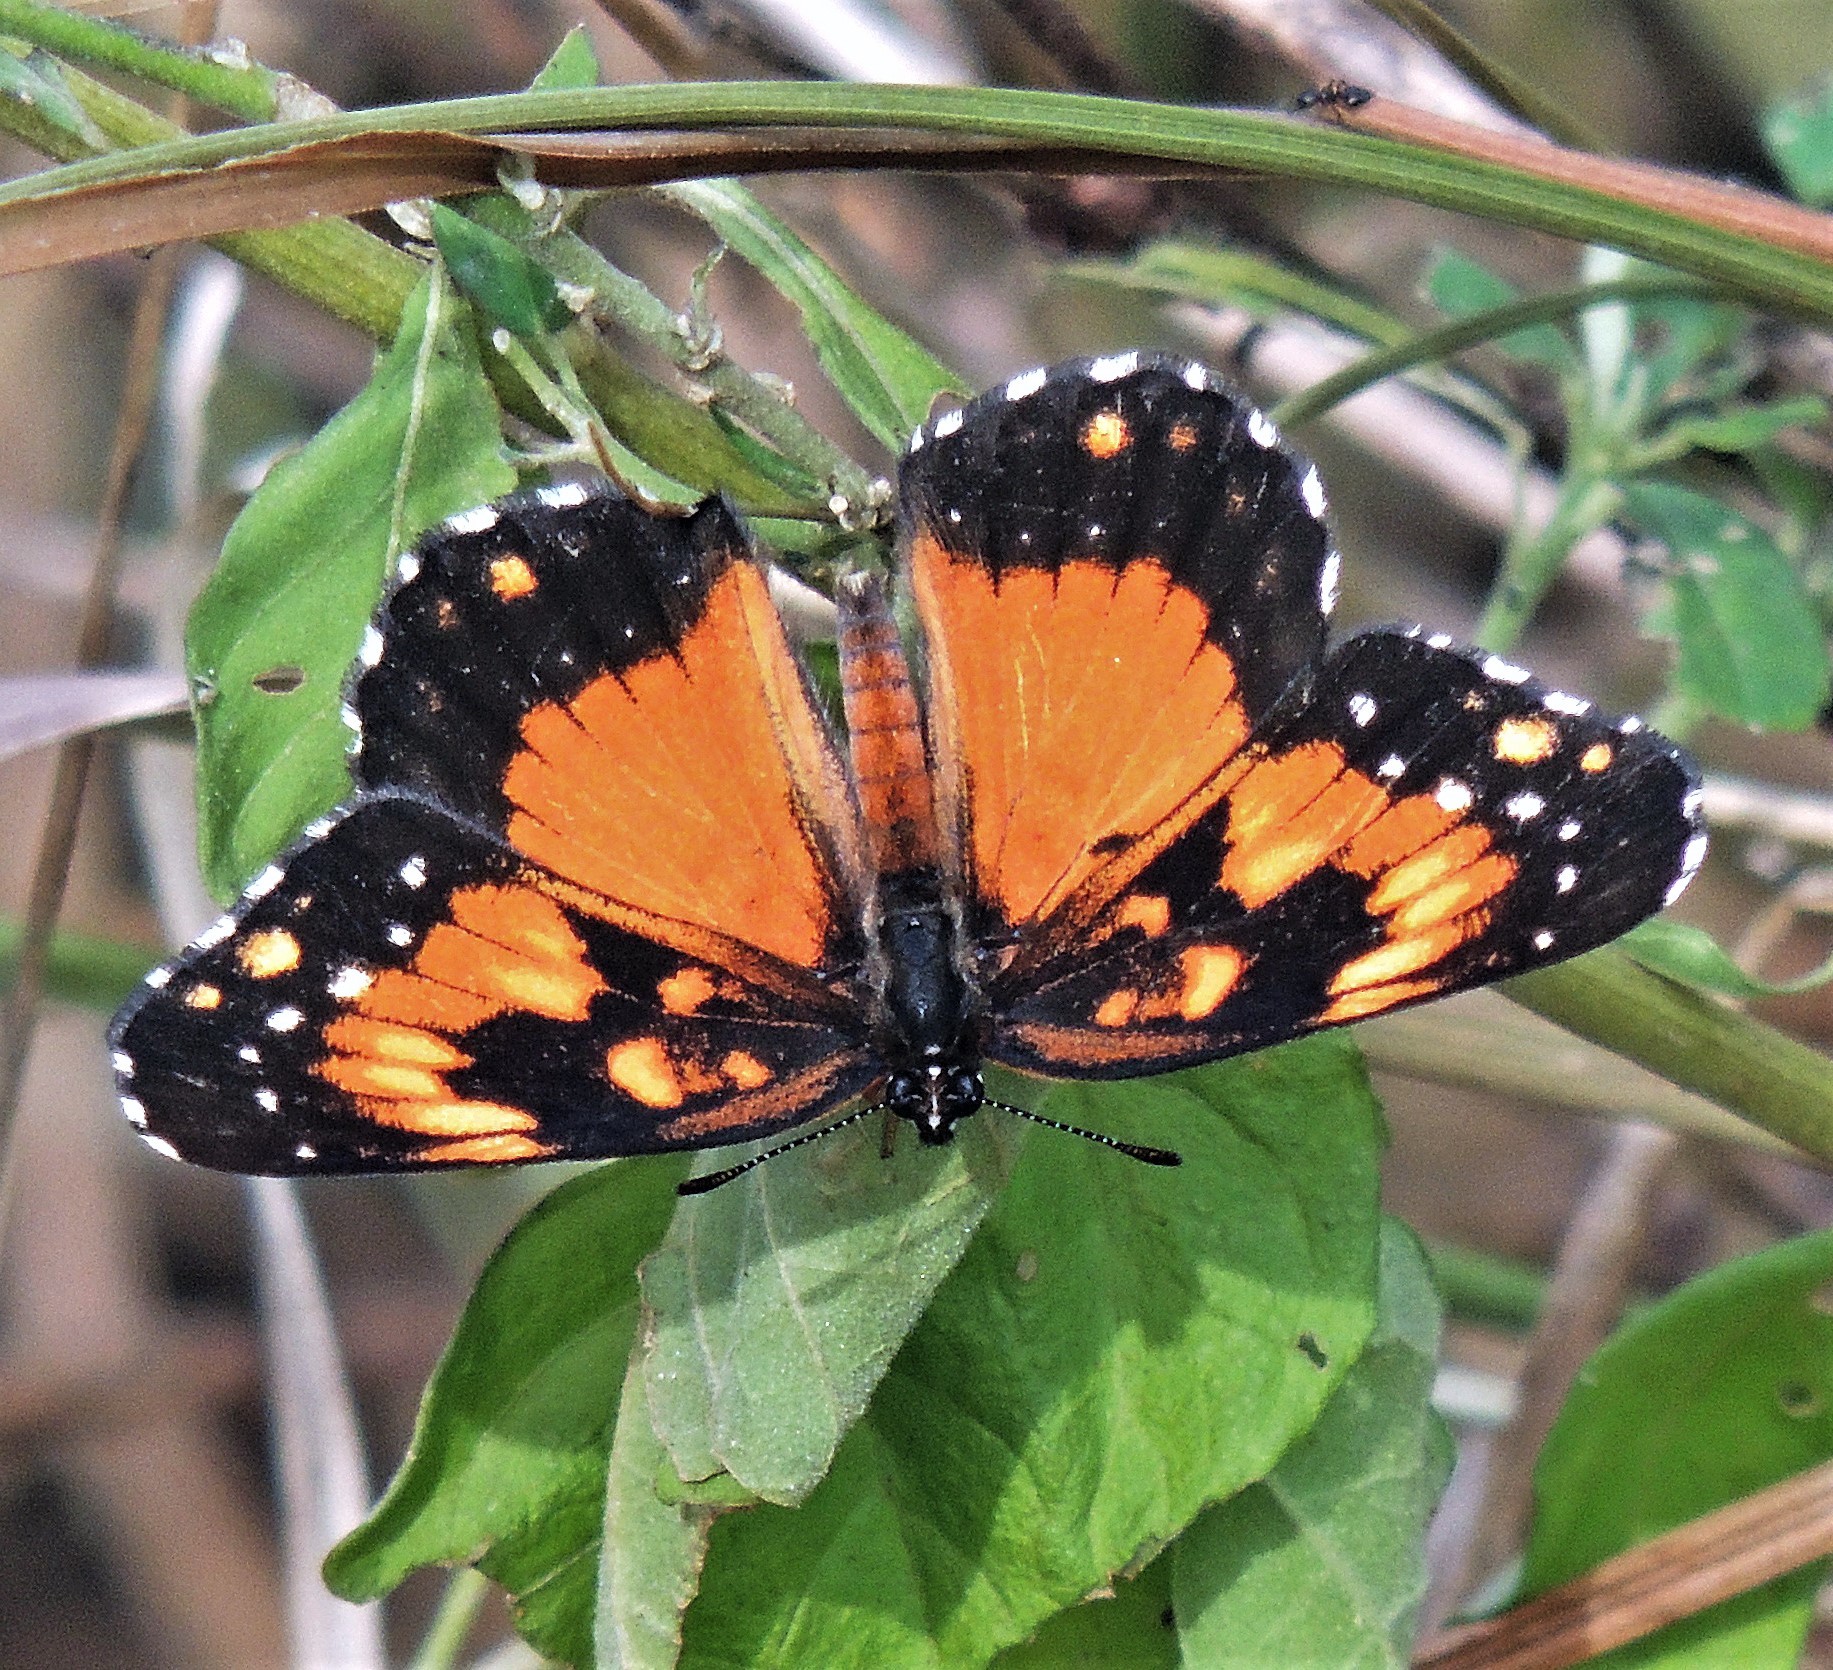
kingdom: Animalia
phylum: Arthropoda
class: Insecta
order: Lepidoptera
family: Nymphalidae
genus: Chlosyne
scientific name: Chlosyne lacinia
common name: Bordered patch
